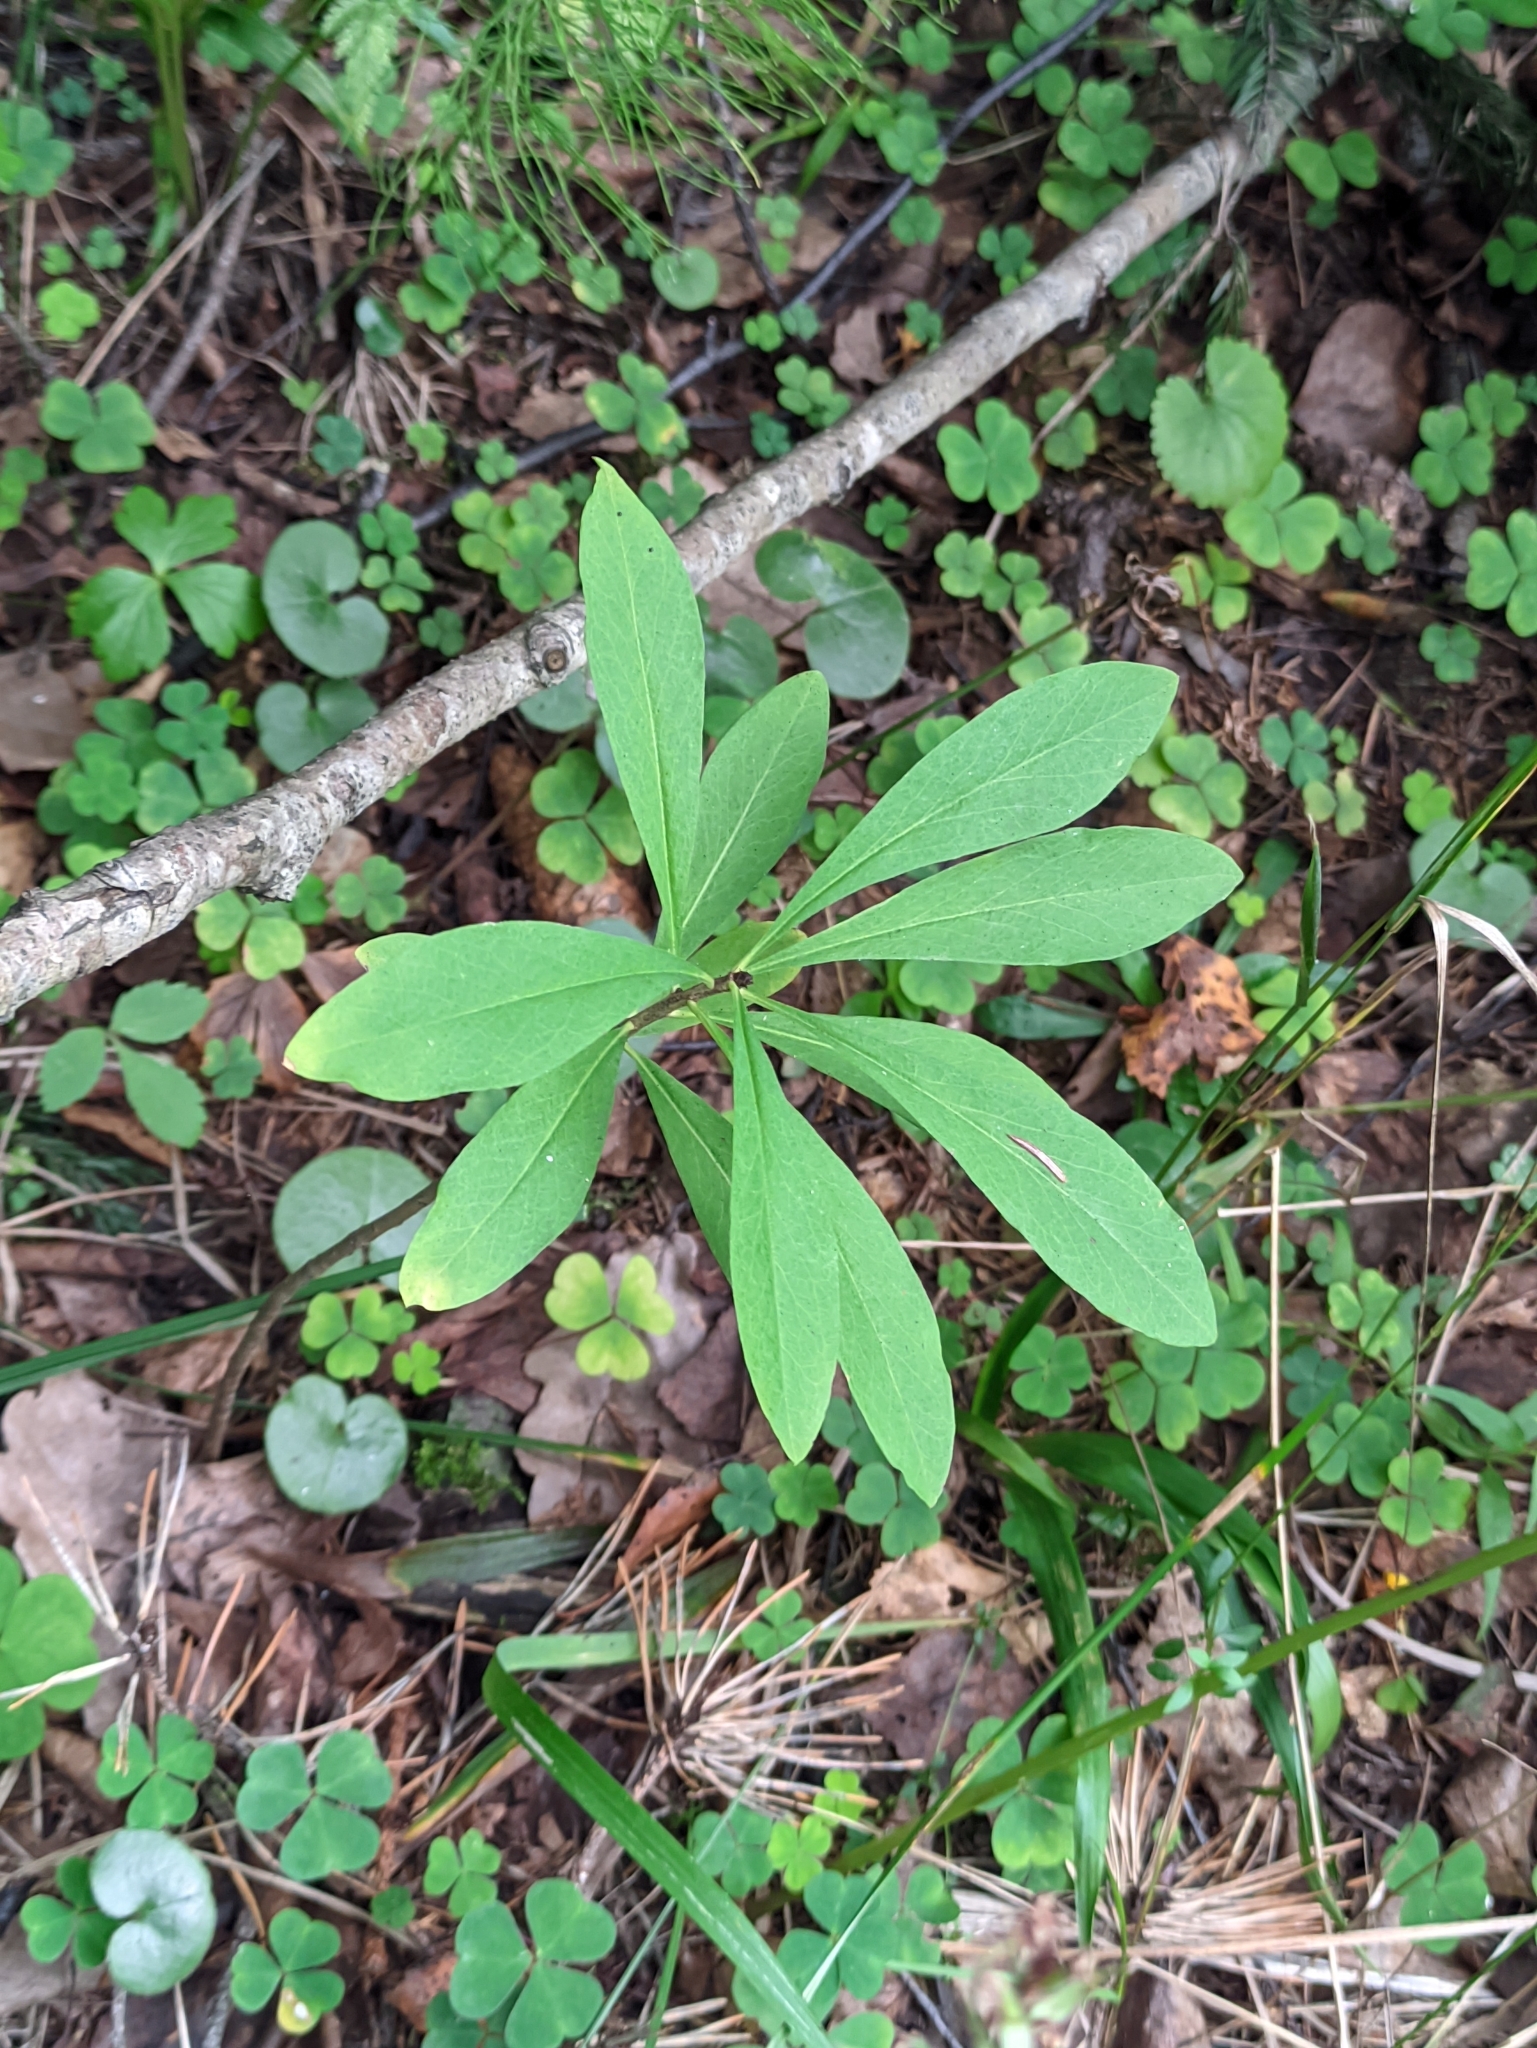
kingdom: Plantae
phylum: Tracheophyta
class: Magnoliopsida
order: Malvales
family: Thymelaeaceae
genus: Daphne
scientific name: Daphne mezereum
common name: Mezereon
